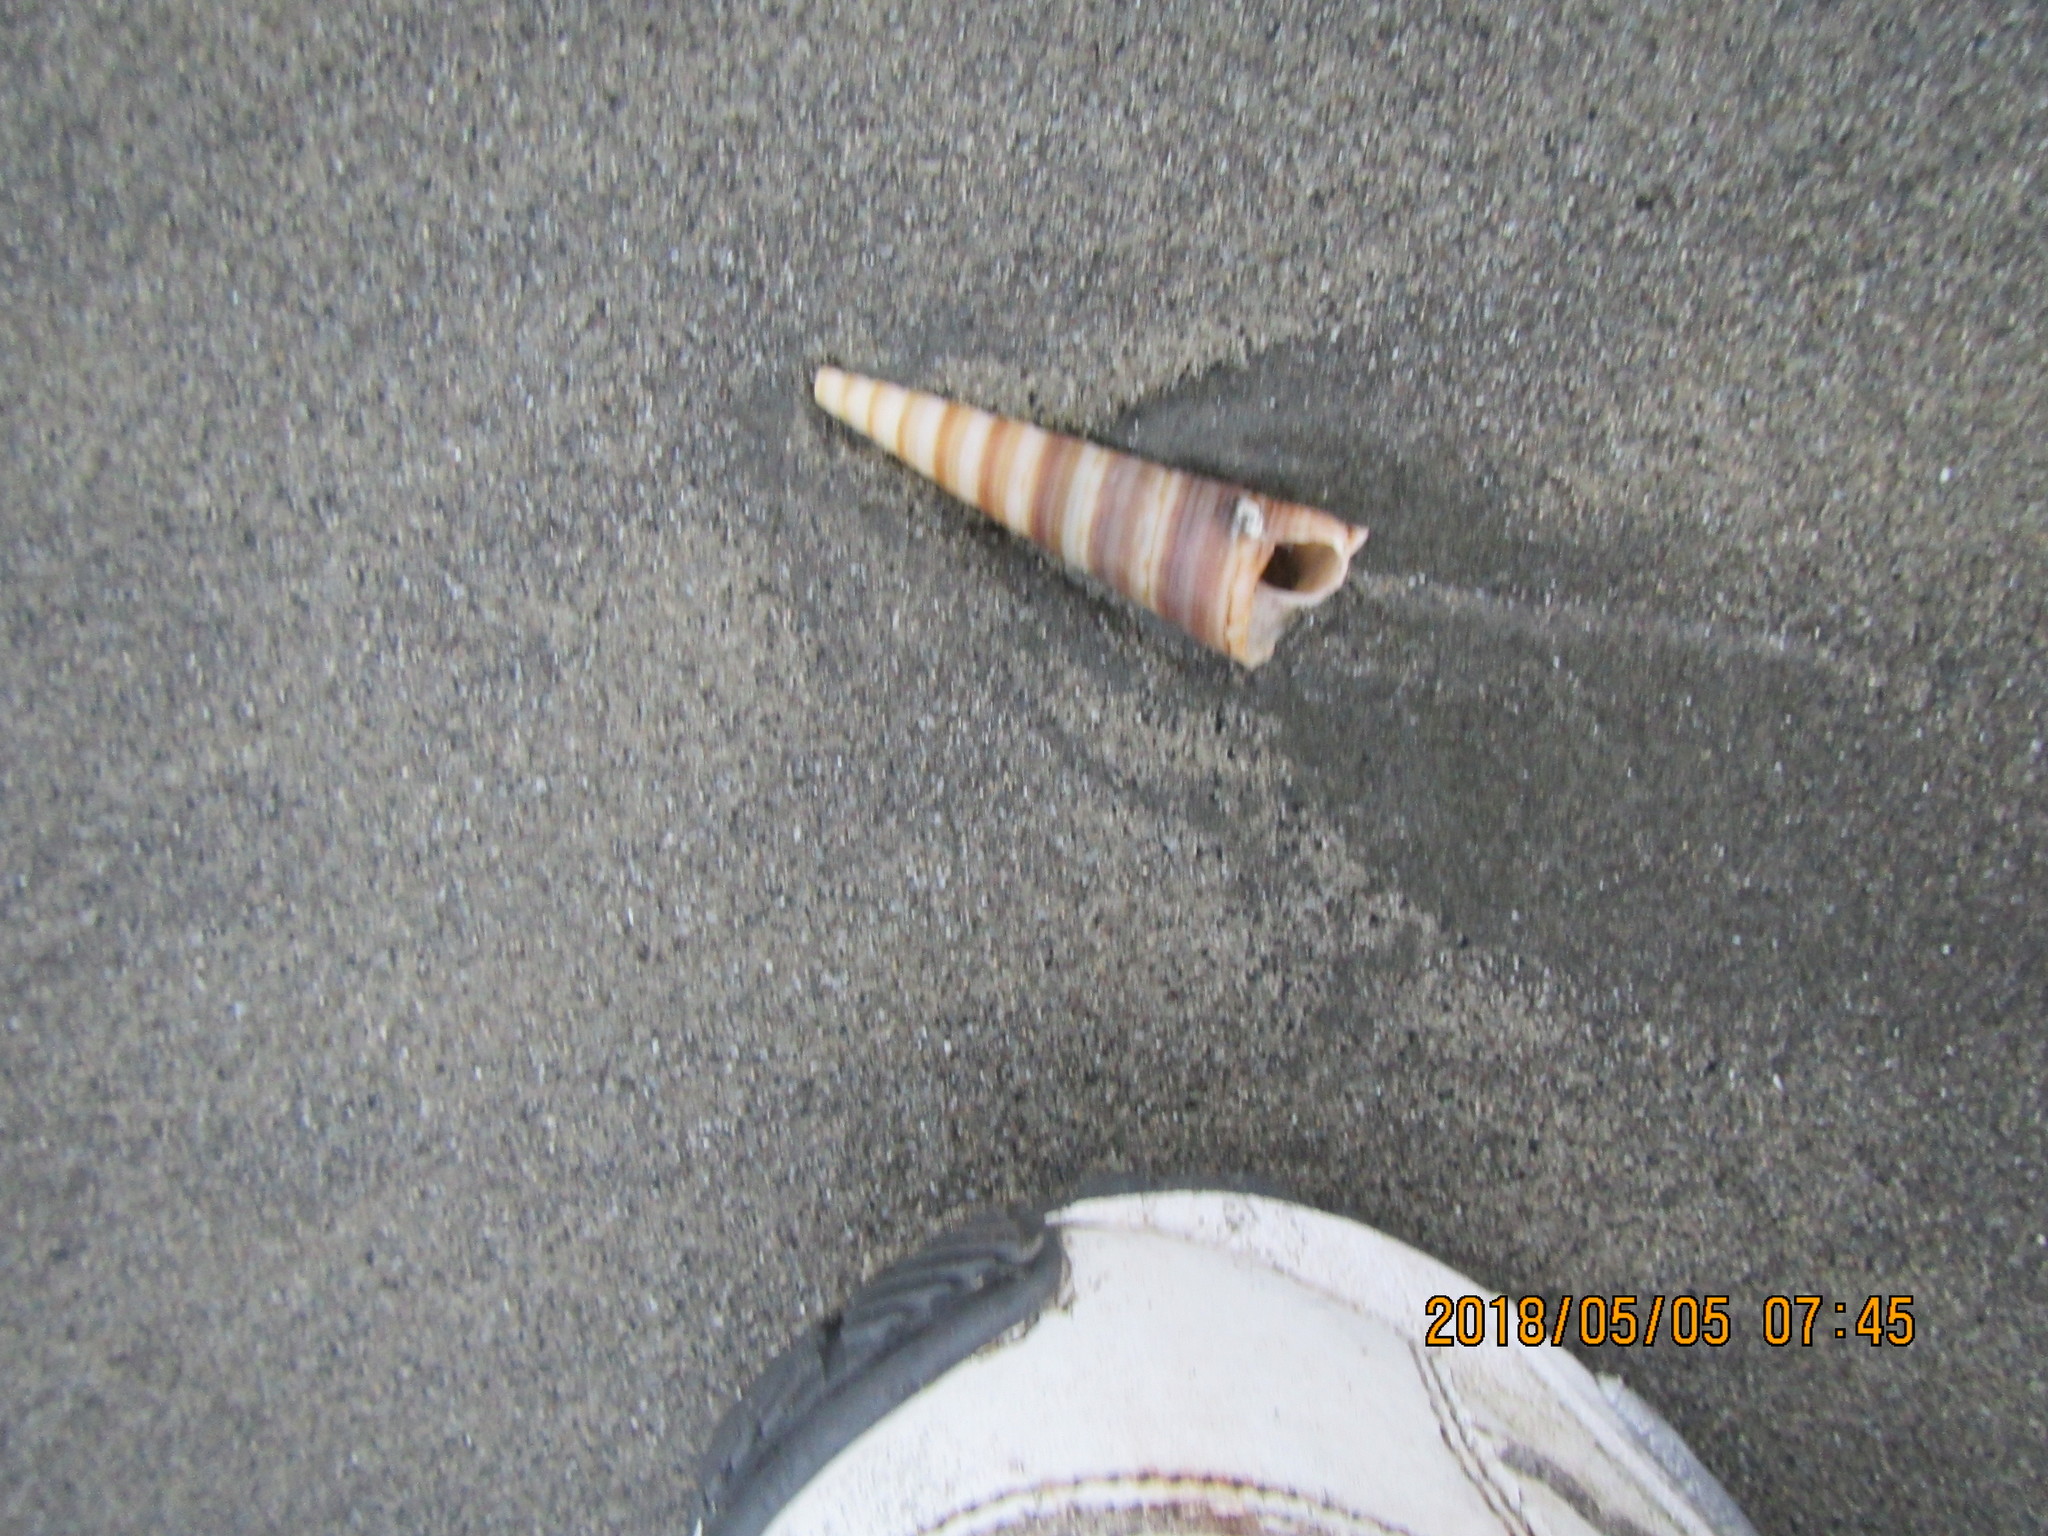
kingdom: Animalia
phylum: Mollusca
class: Gastropoda
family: Turritellidae
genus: Zeacolpus
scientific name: Zeacolpus vittatus
